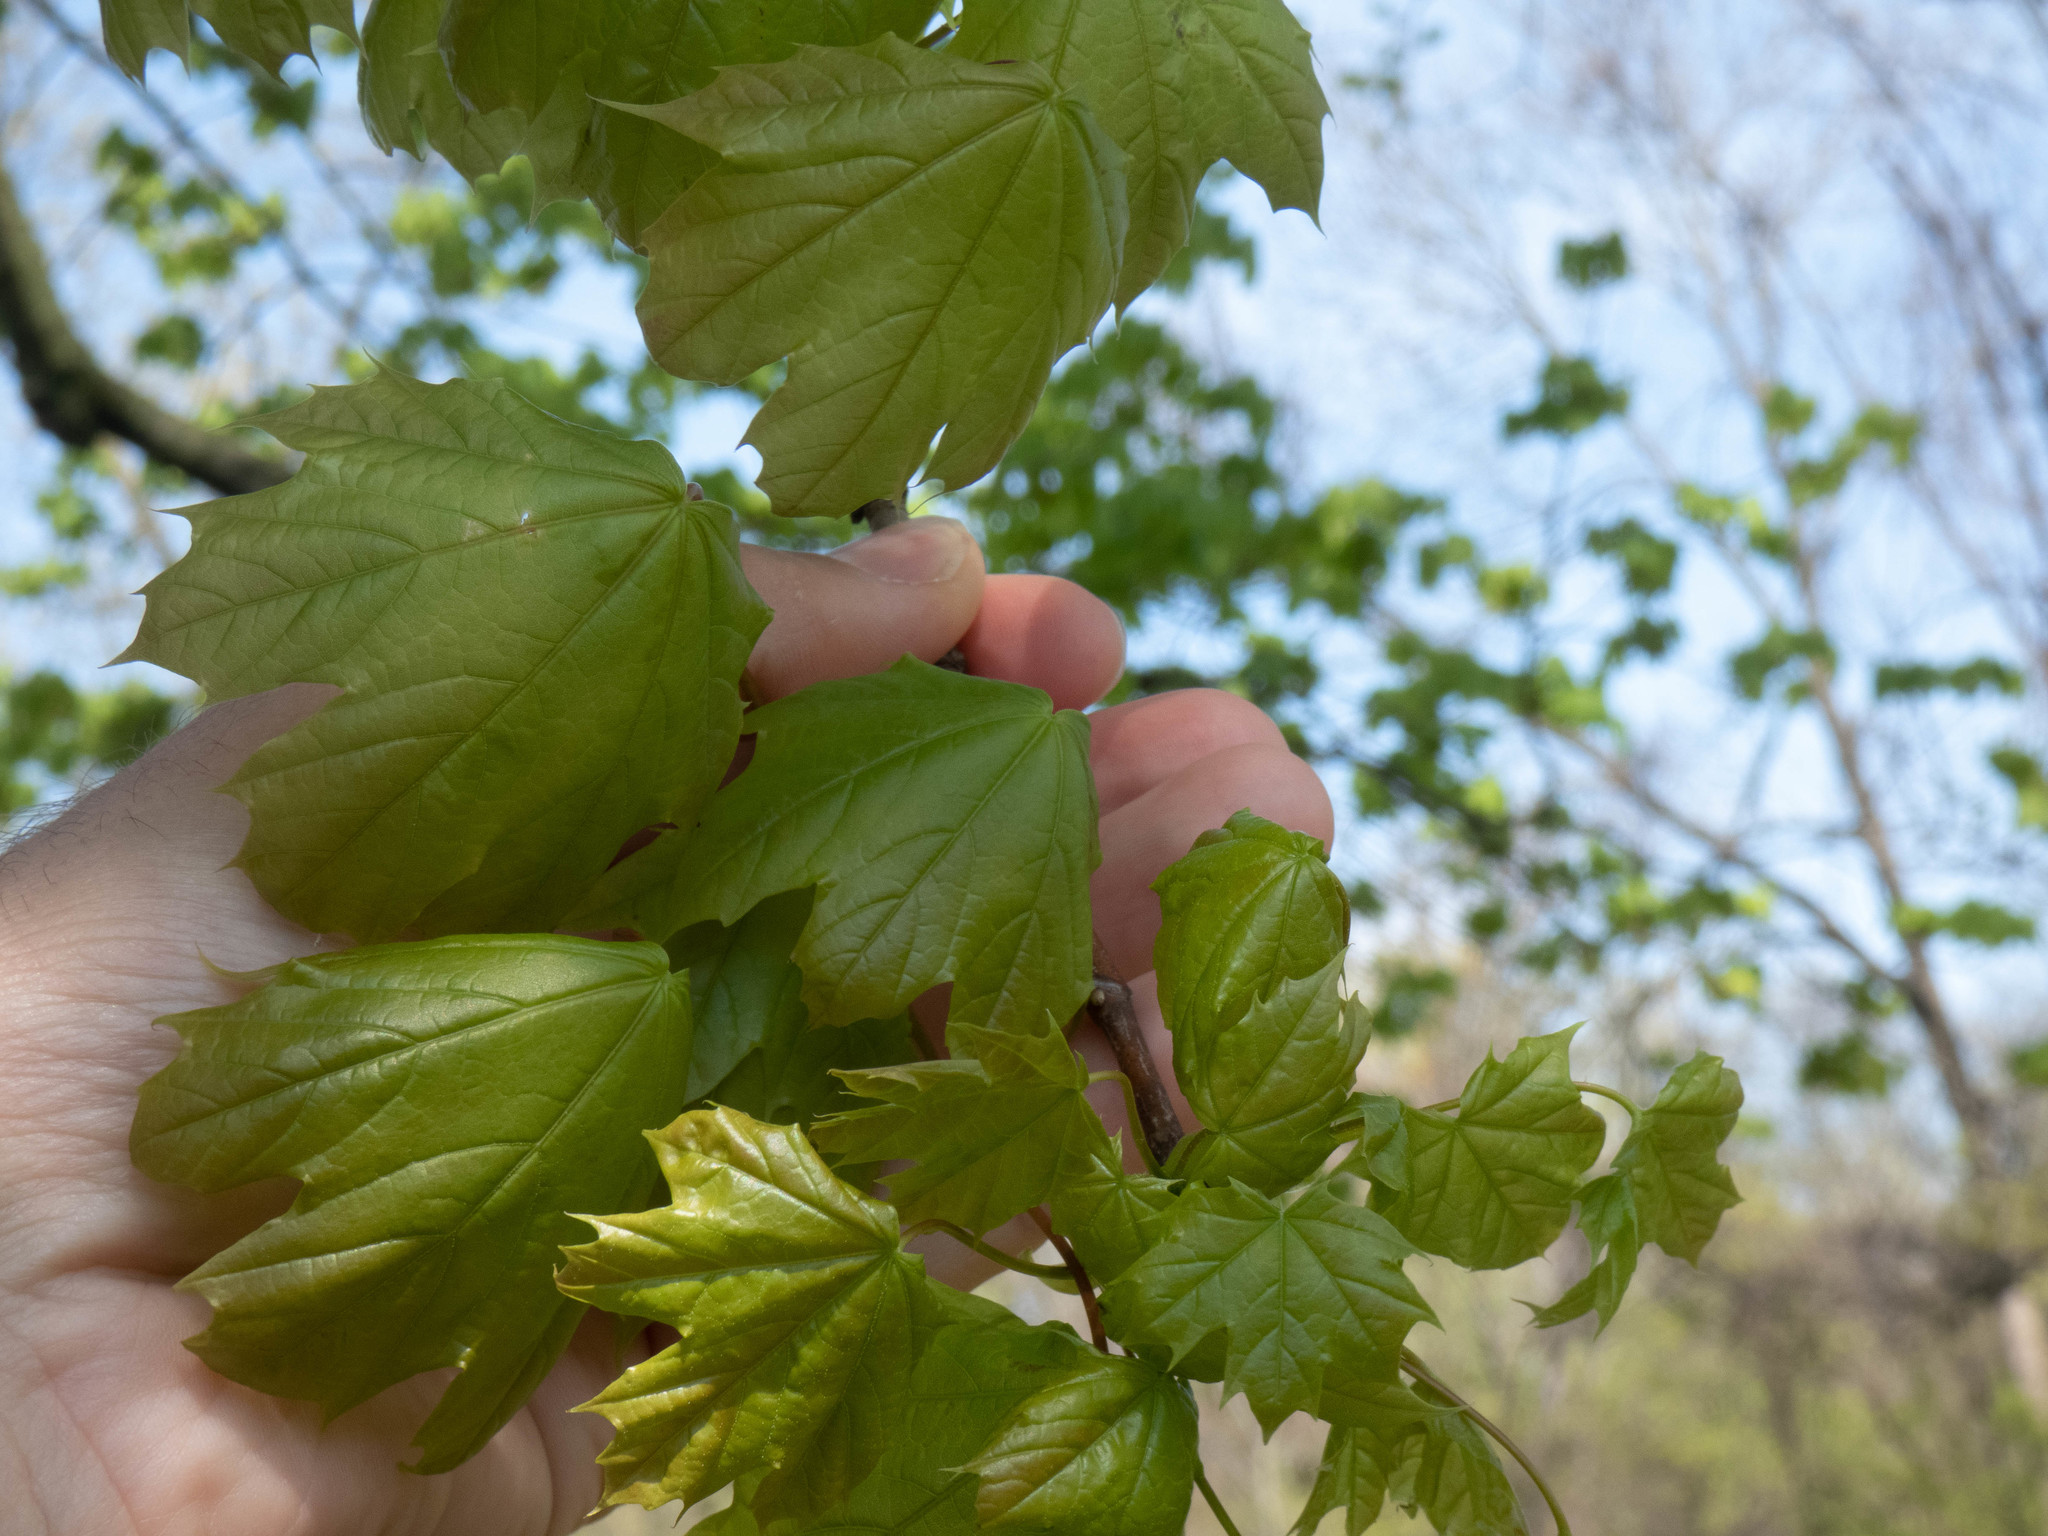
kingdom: Plantae
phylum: Tracheophyta
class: Magnoliopsida
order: Sapindales
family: Sapindaceae
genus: Acer
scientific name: Acer platanoides
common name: Norway maple
